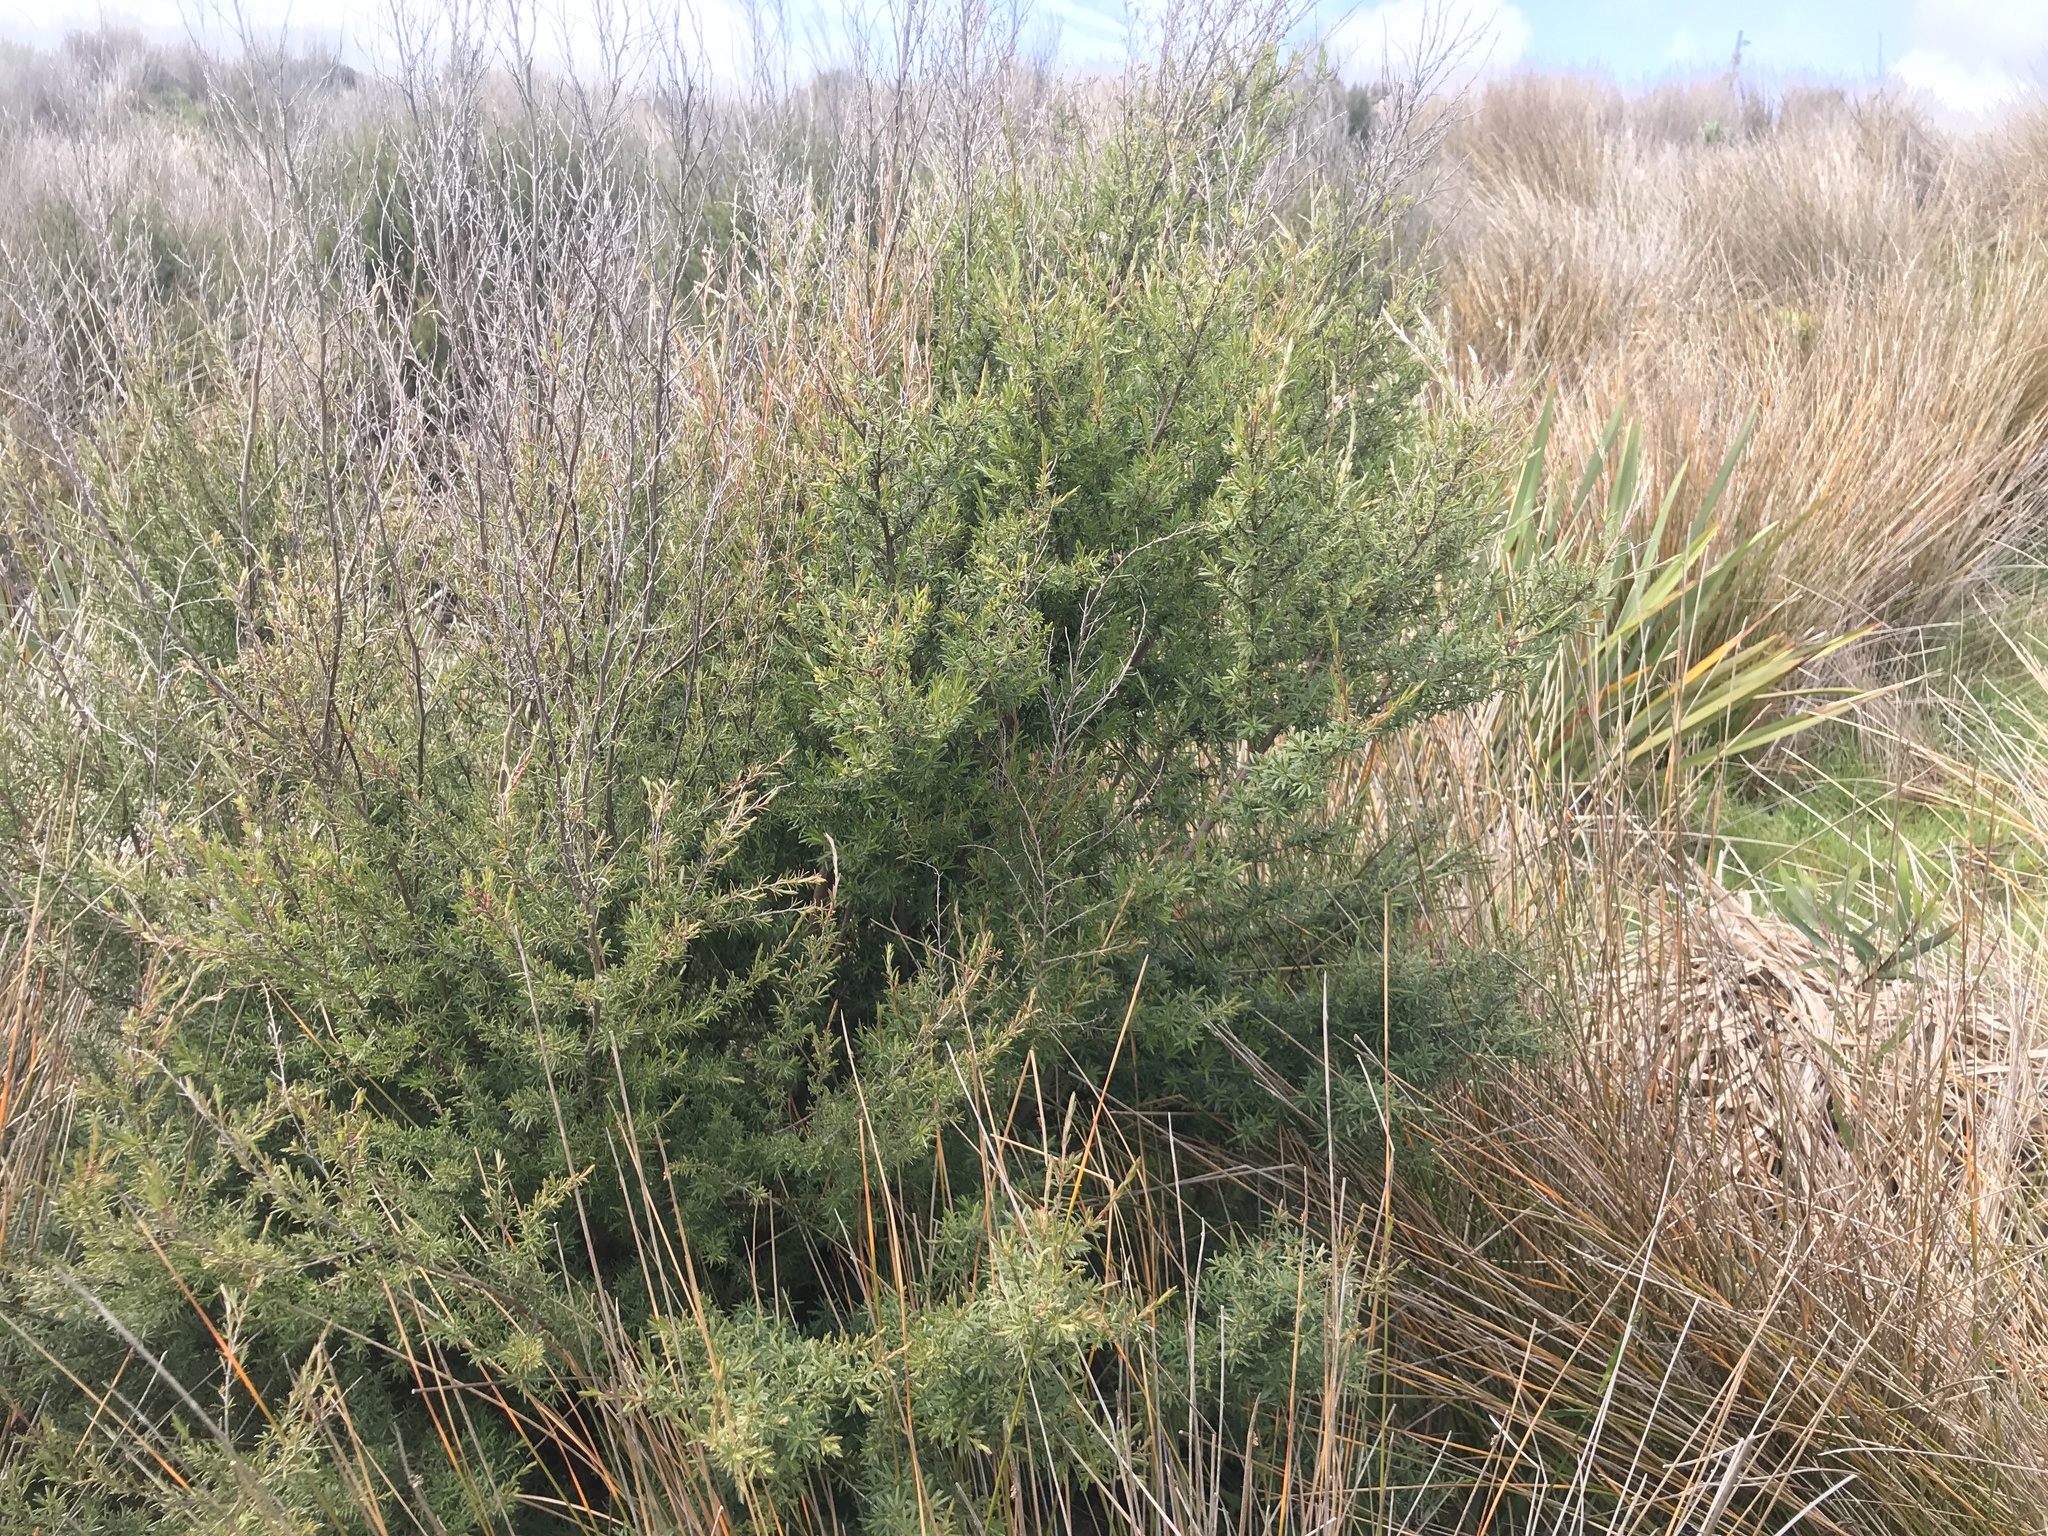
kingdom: Plantae
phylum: Tracheophyta
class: Magnoliopsida
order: Myrtales
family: Myrtaceae
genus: Kunzea
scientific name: Kunzea robusta
